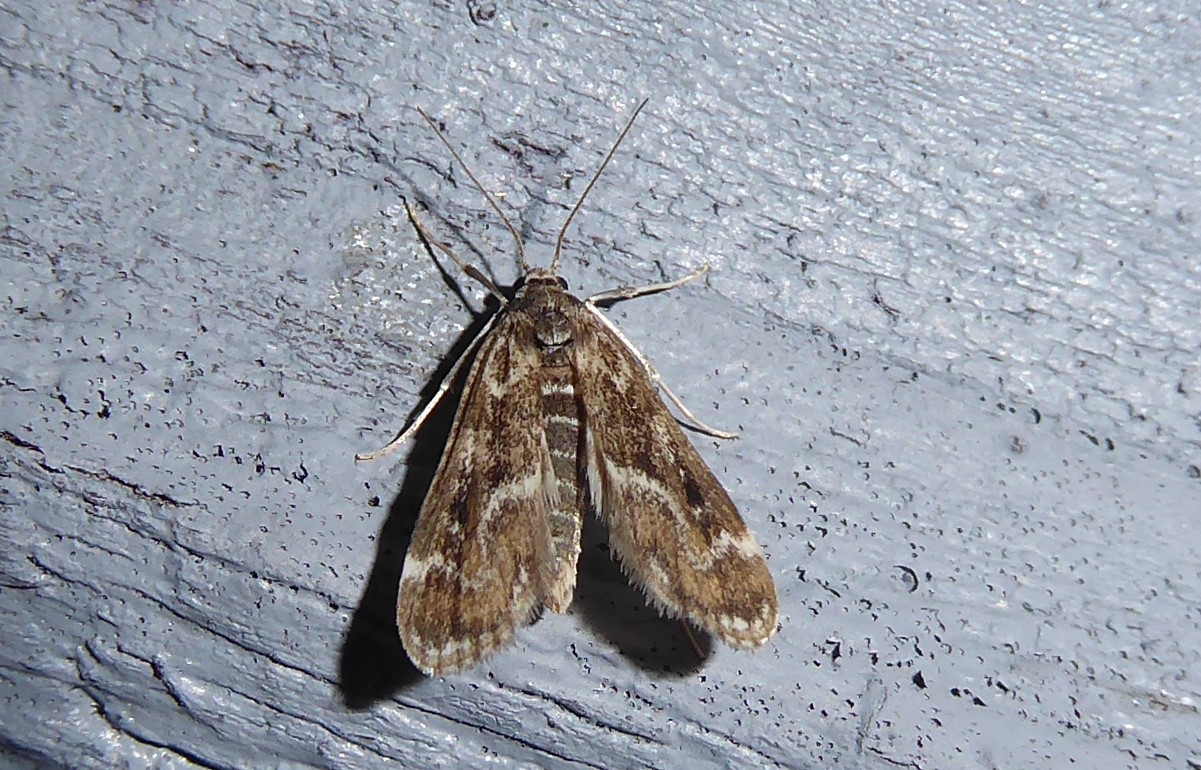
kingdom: Animalia
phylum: Arthropoda
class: Insecta
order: Lepidoptera
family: Crambidae
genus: Hygraula
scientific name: Hygraula nitens
